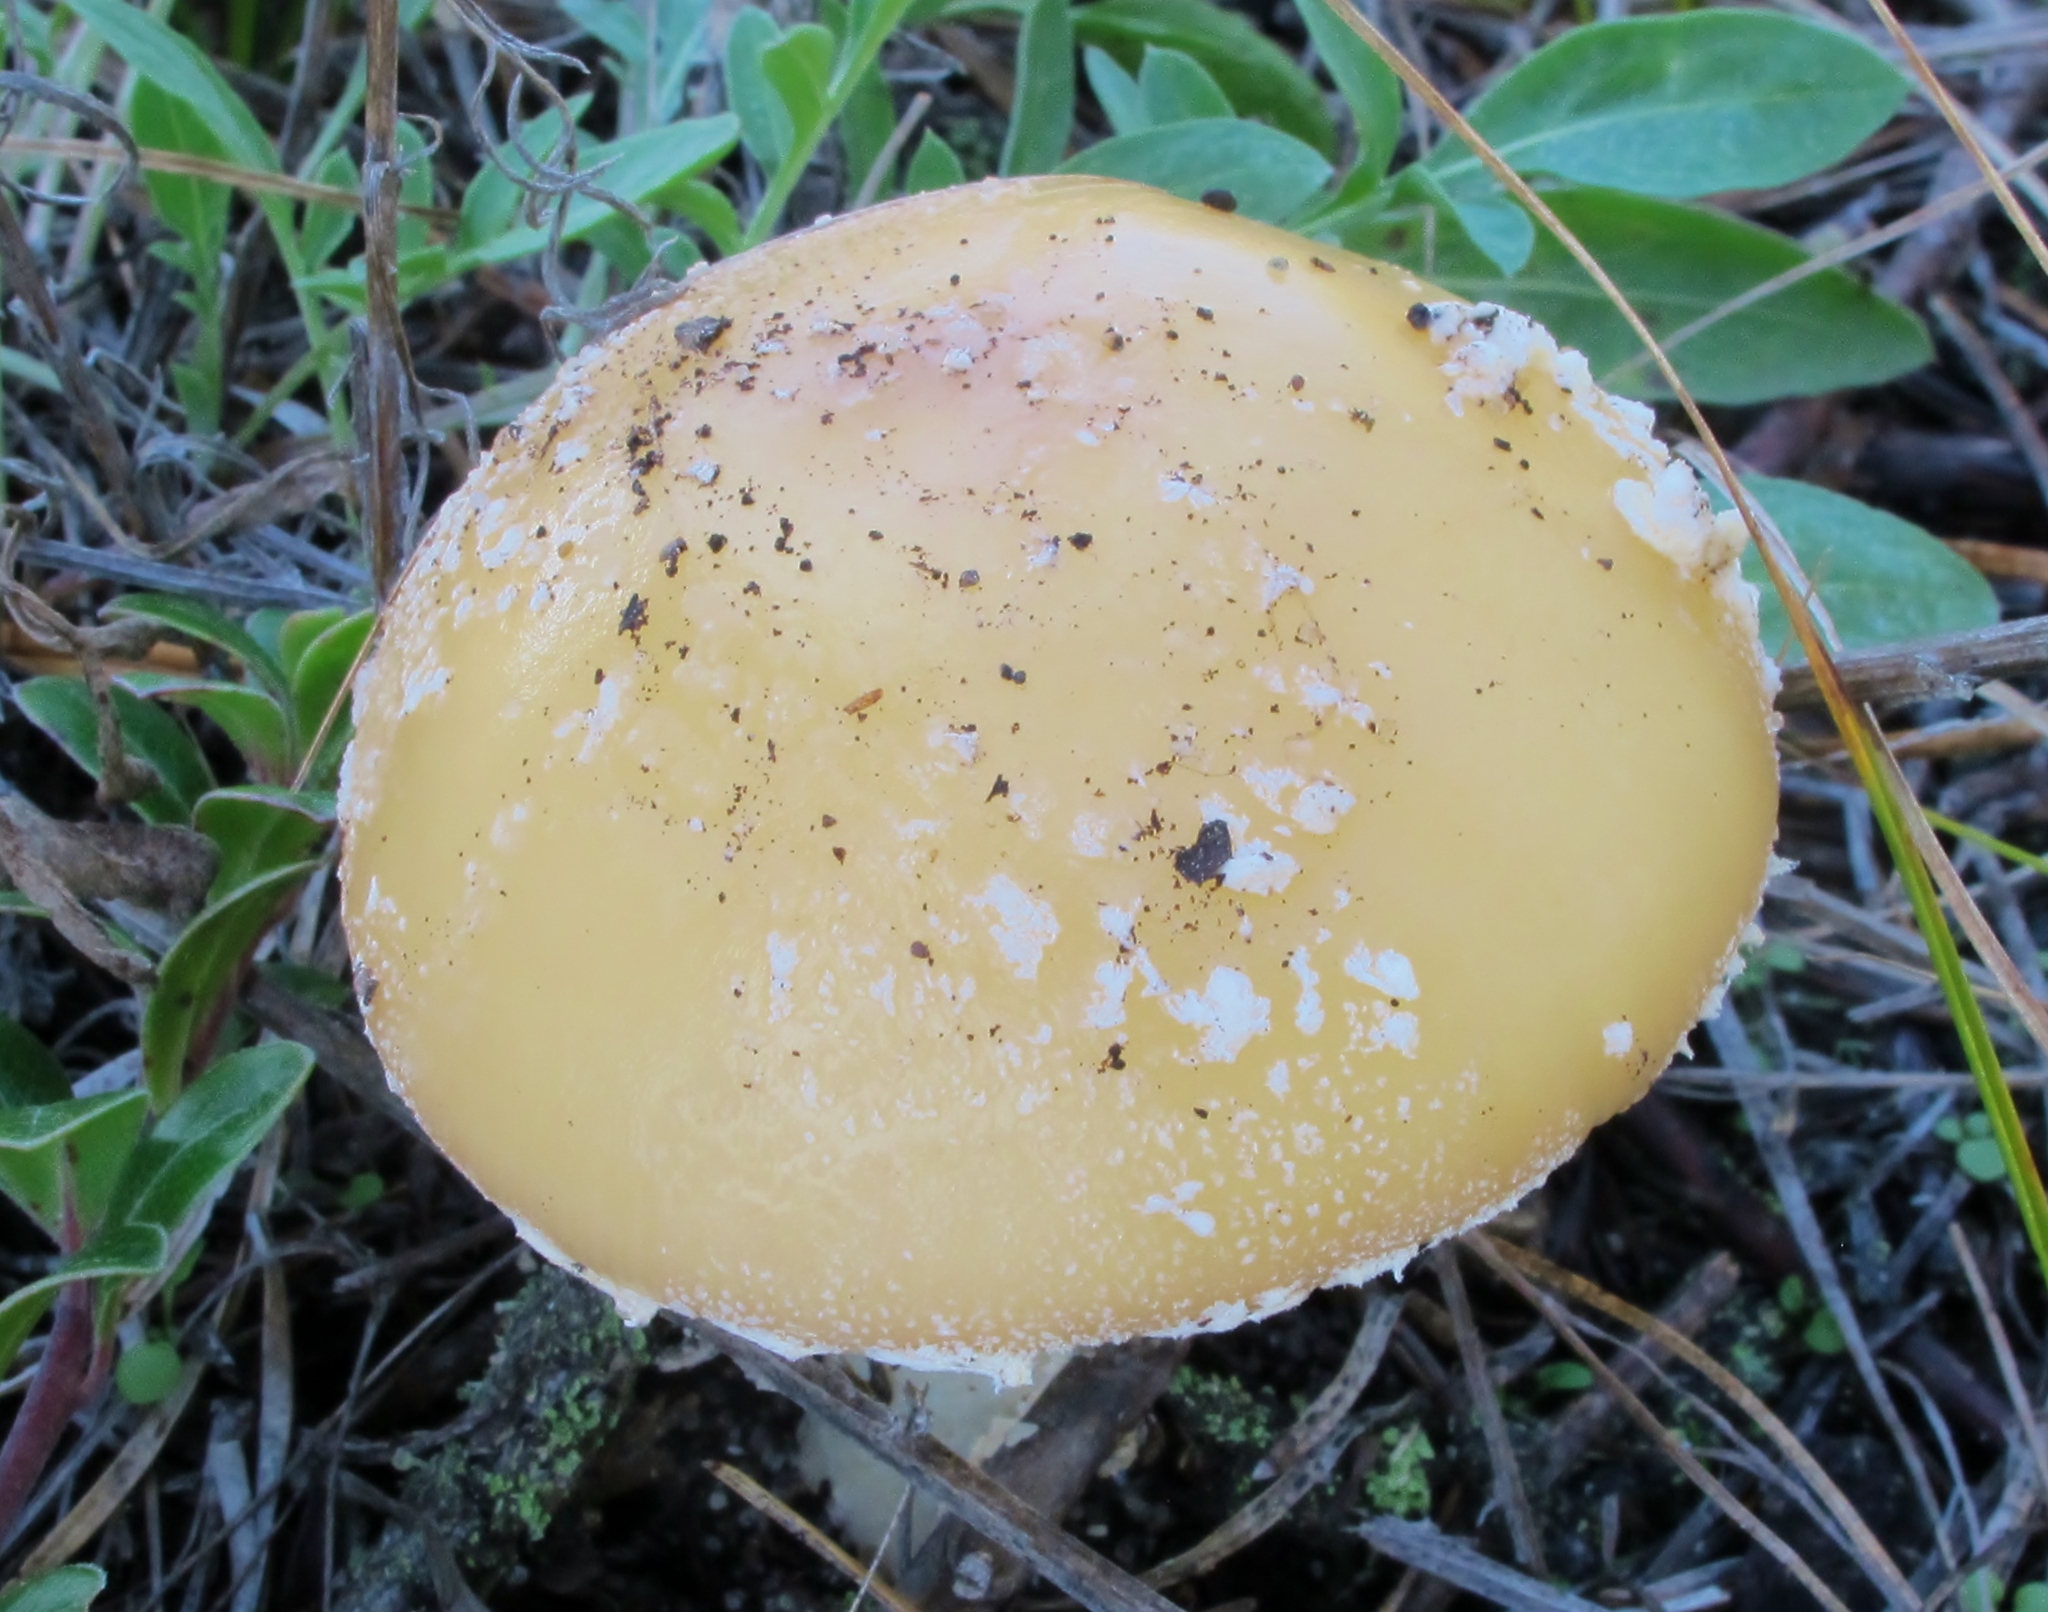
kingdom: Fungi
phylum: Basidiomycota
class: Agaricomycetes
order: Agaricales
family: Amanitaceae
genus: Amanita
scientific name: Amanita crenulata
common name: Poison champagne amanita
